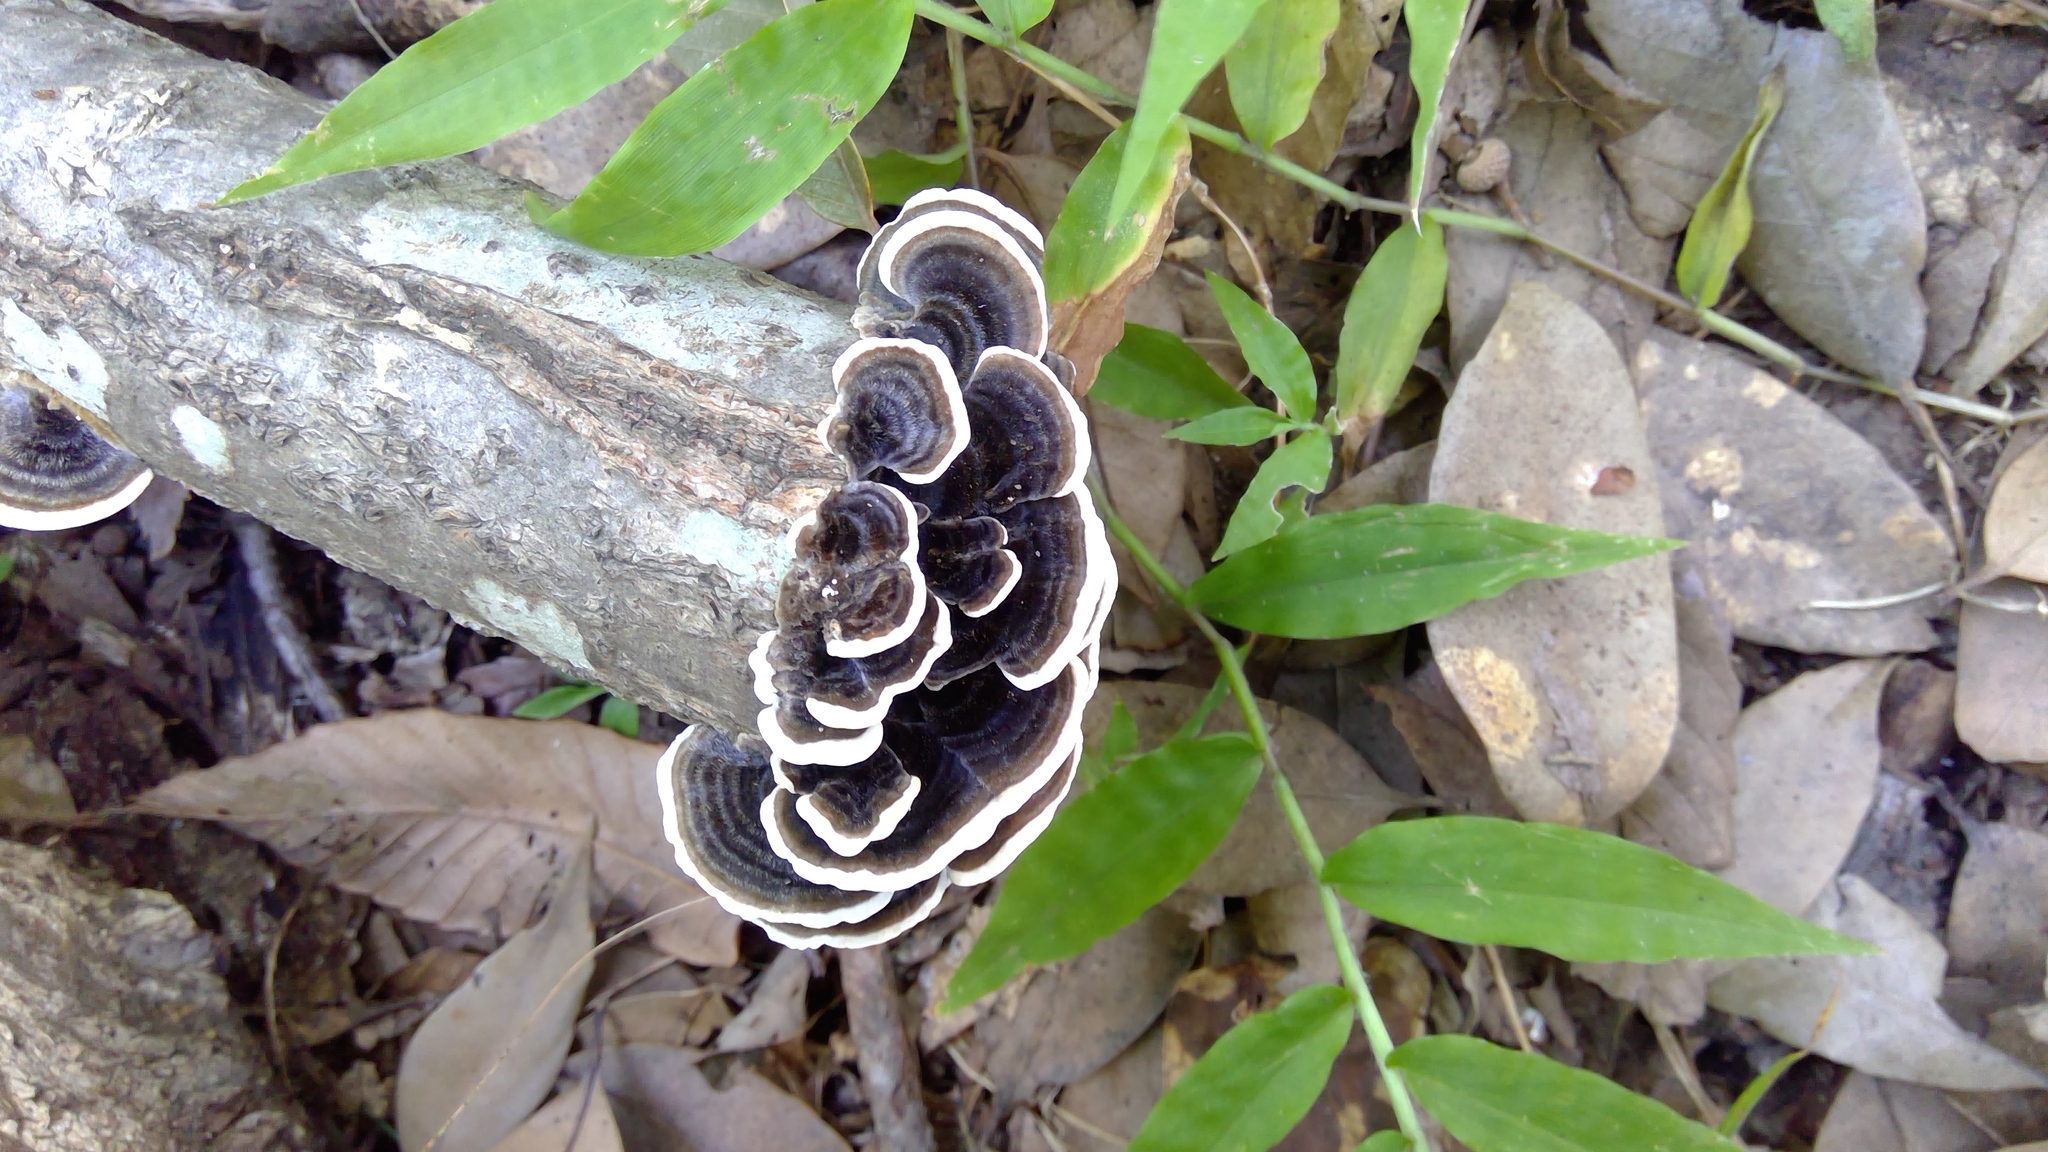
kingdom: Fungi
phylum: Basidiomycota
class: Agaricomycetes
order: Polyporales
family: Polyporaceae
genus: Trametes
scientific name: Trametes versicolor
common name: Turkeytail
